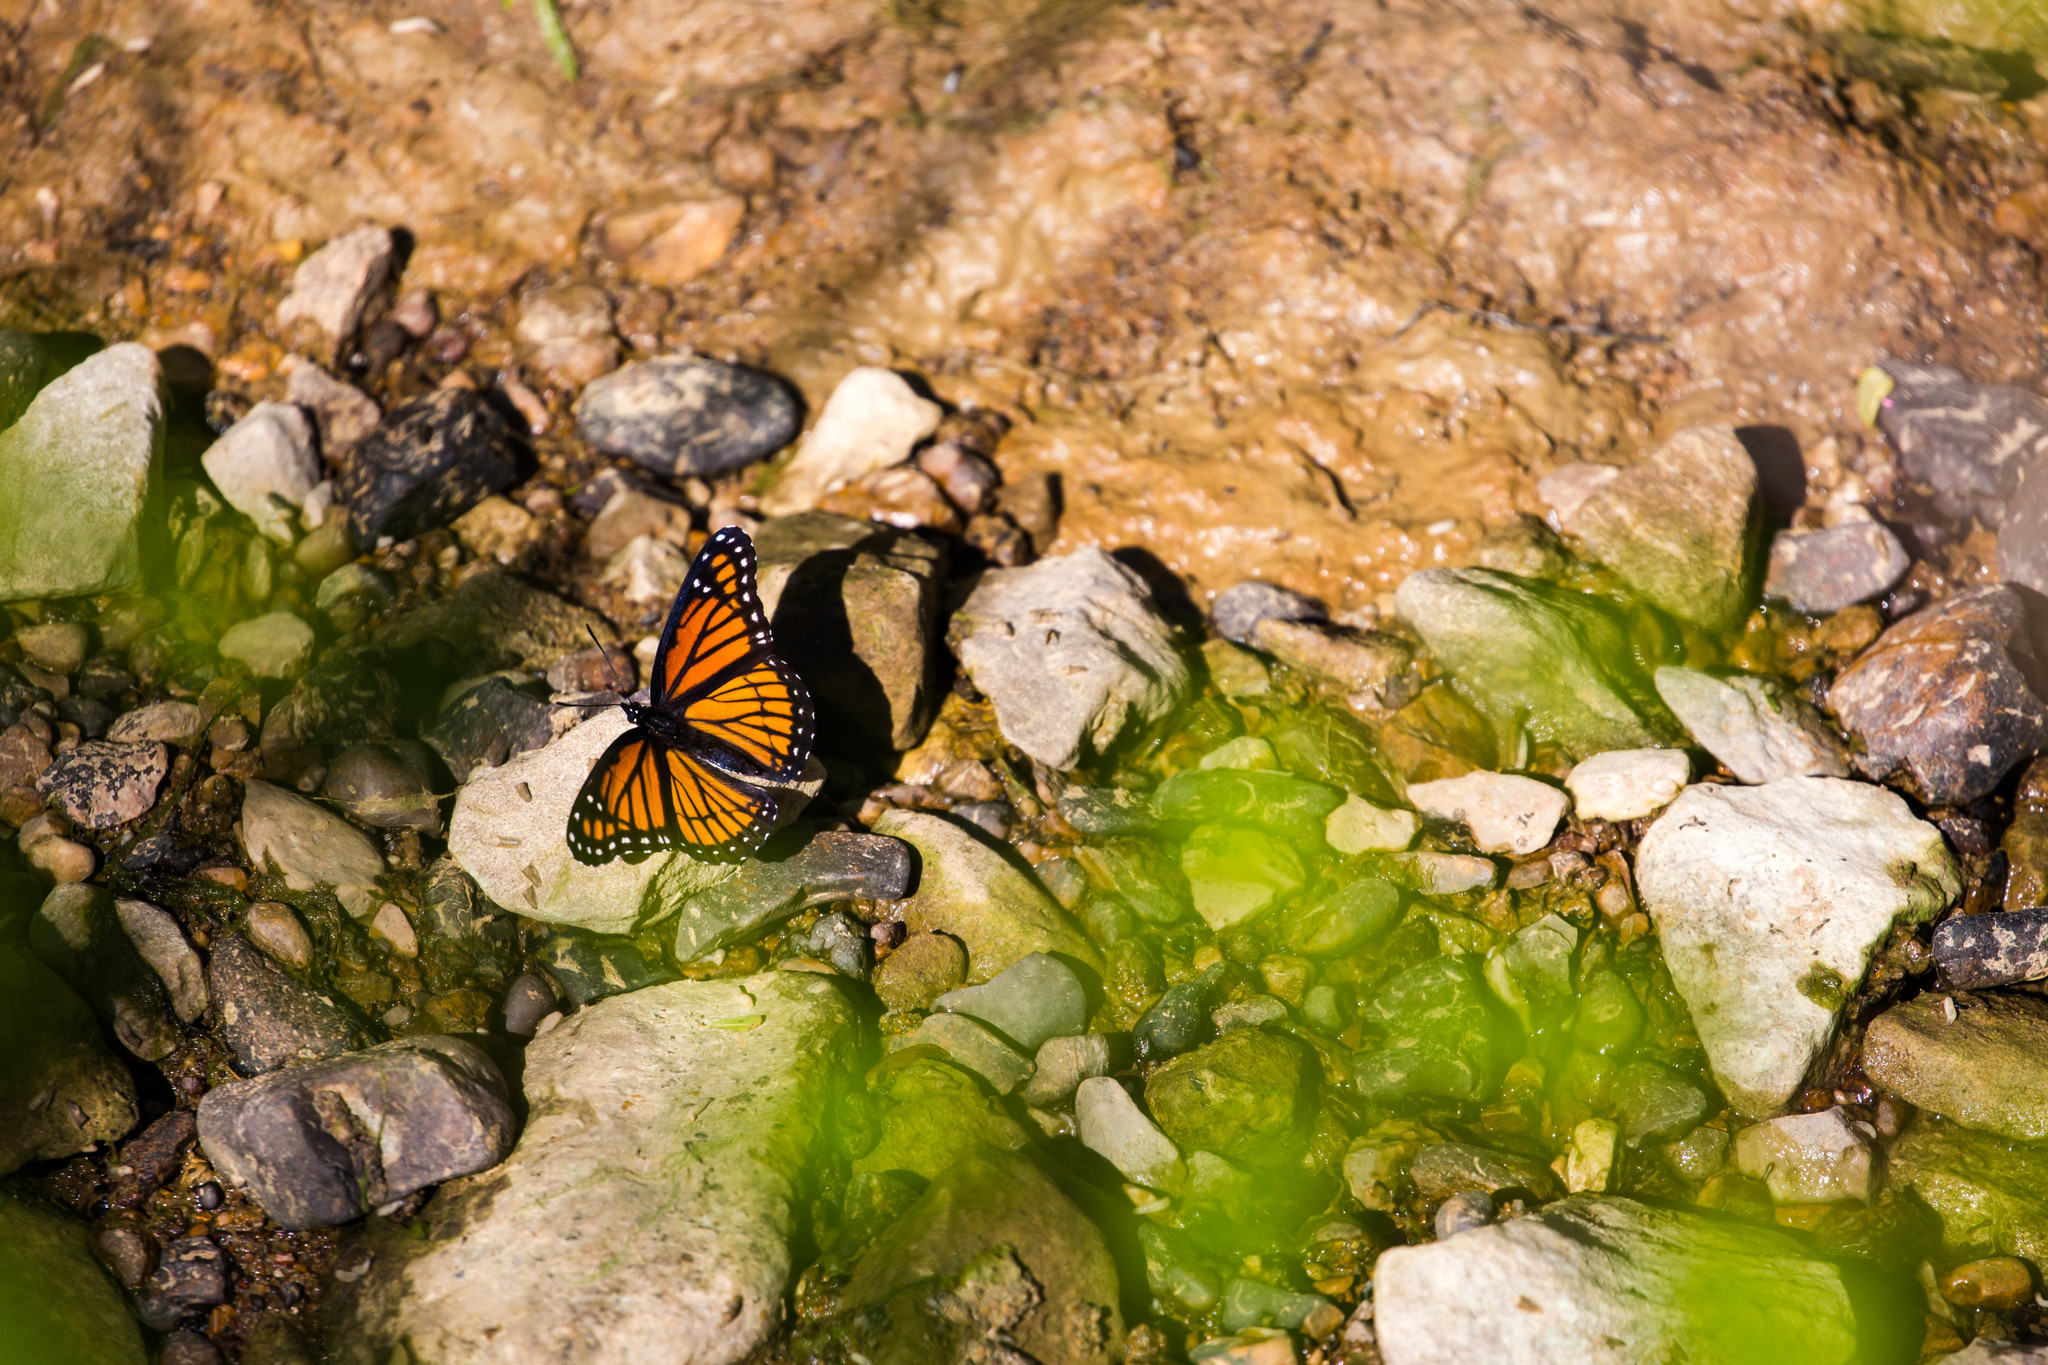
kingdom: Animalia
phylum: Arthropoda
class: Insecta
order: Lepidoptera
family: Nymphalidae
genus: Limenitis
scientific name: Limenitis archippus
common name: Viceroy
